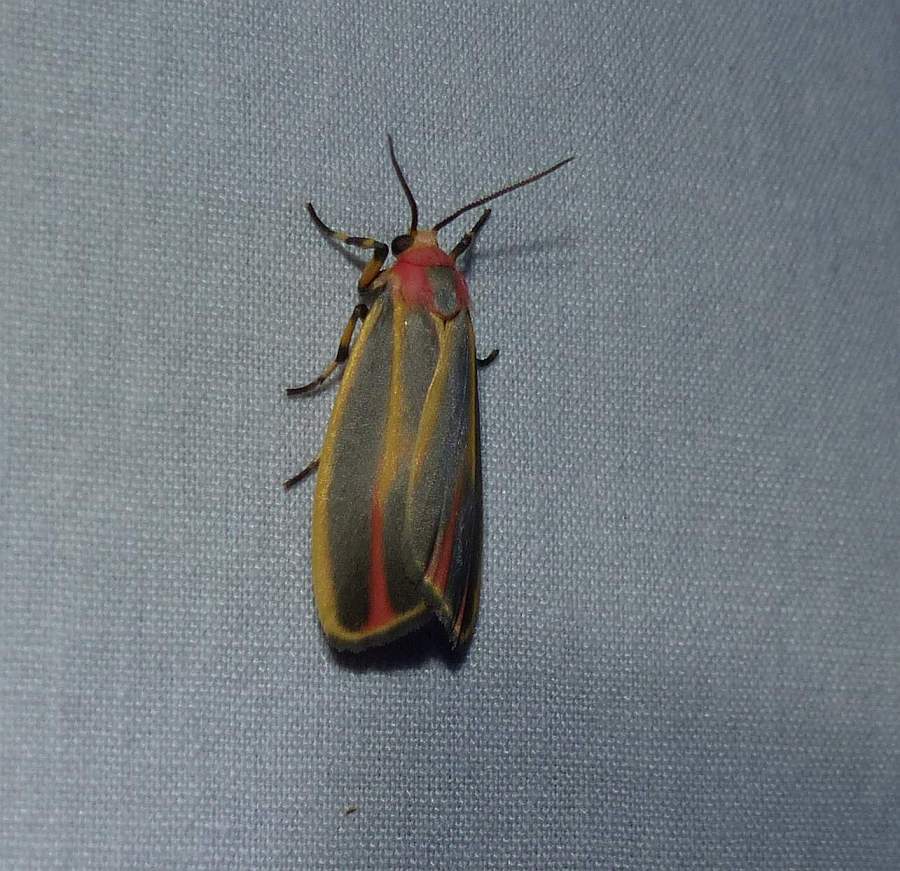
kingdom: Animalia
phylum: Arthropoda
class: Insecta
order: Lepidoptera
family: Erebidae
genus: Hypoprepia
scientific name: Hypoprepia fucosa
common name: Painted lichen moth
